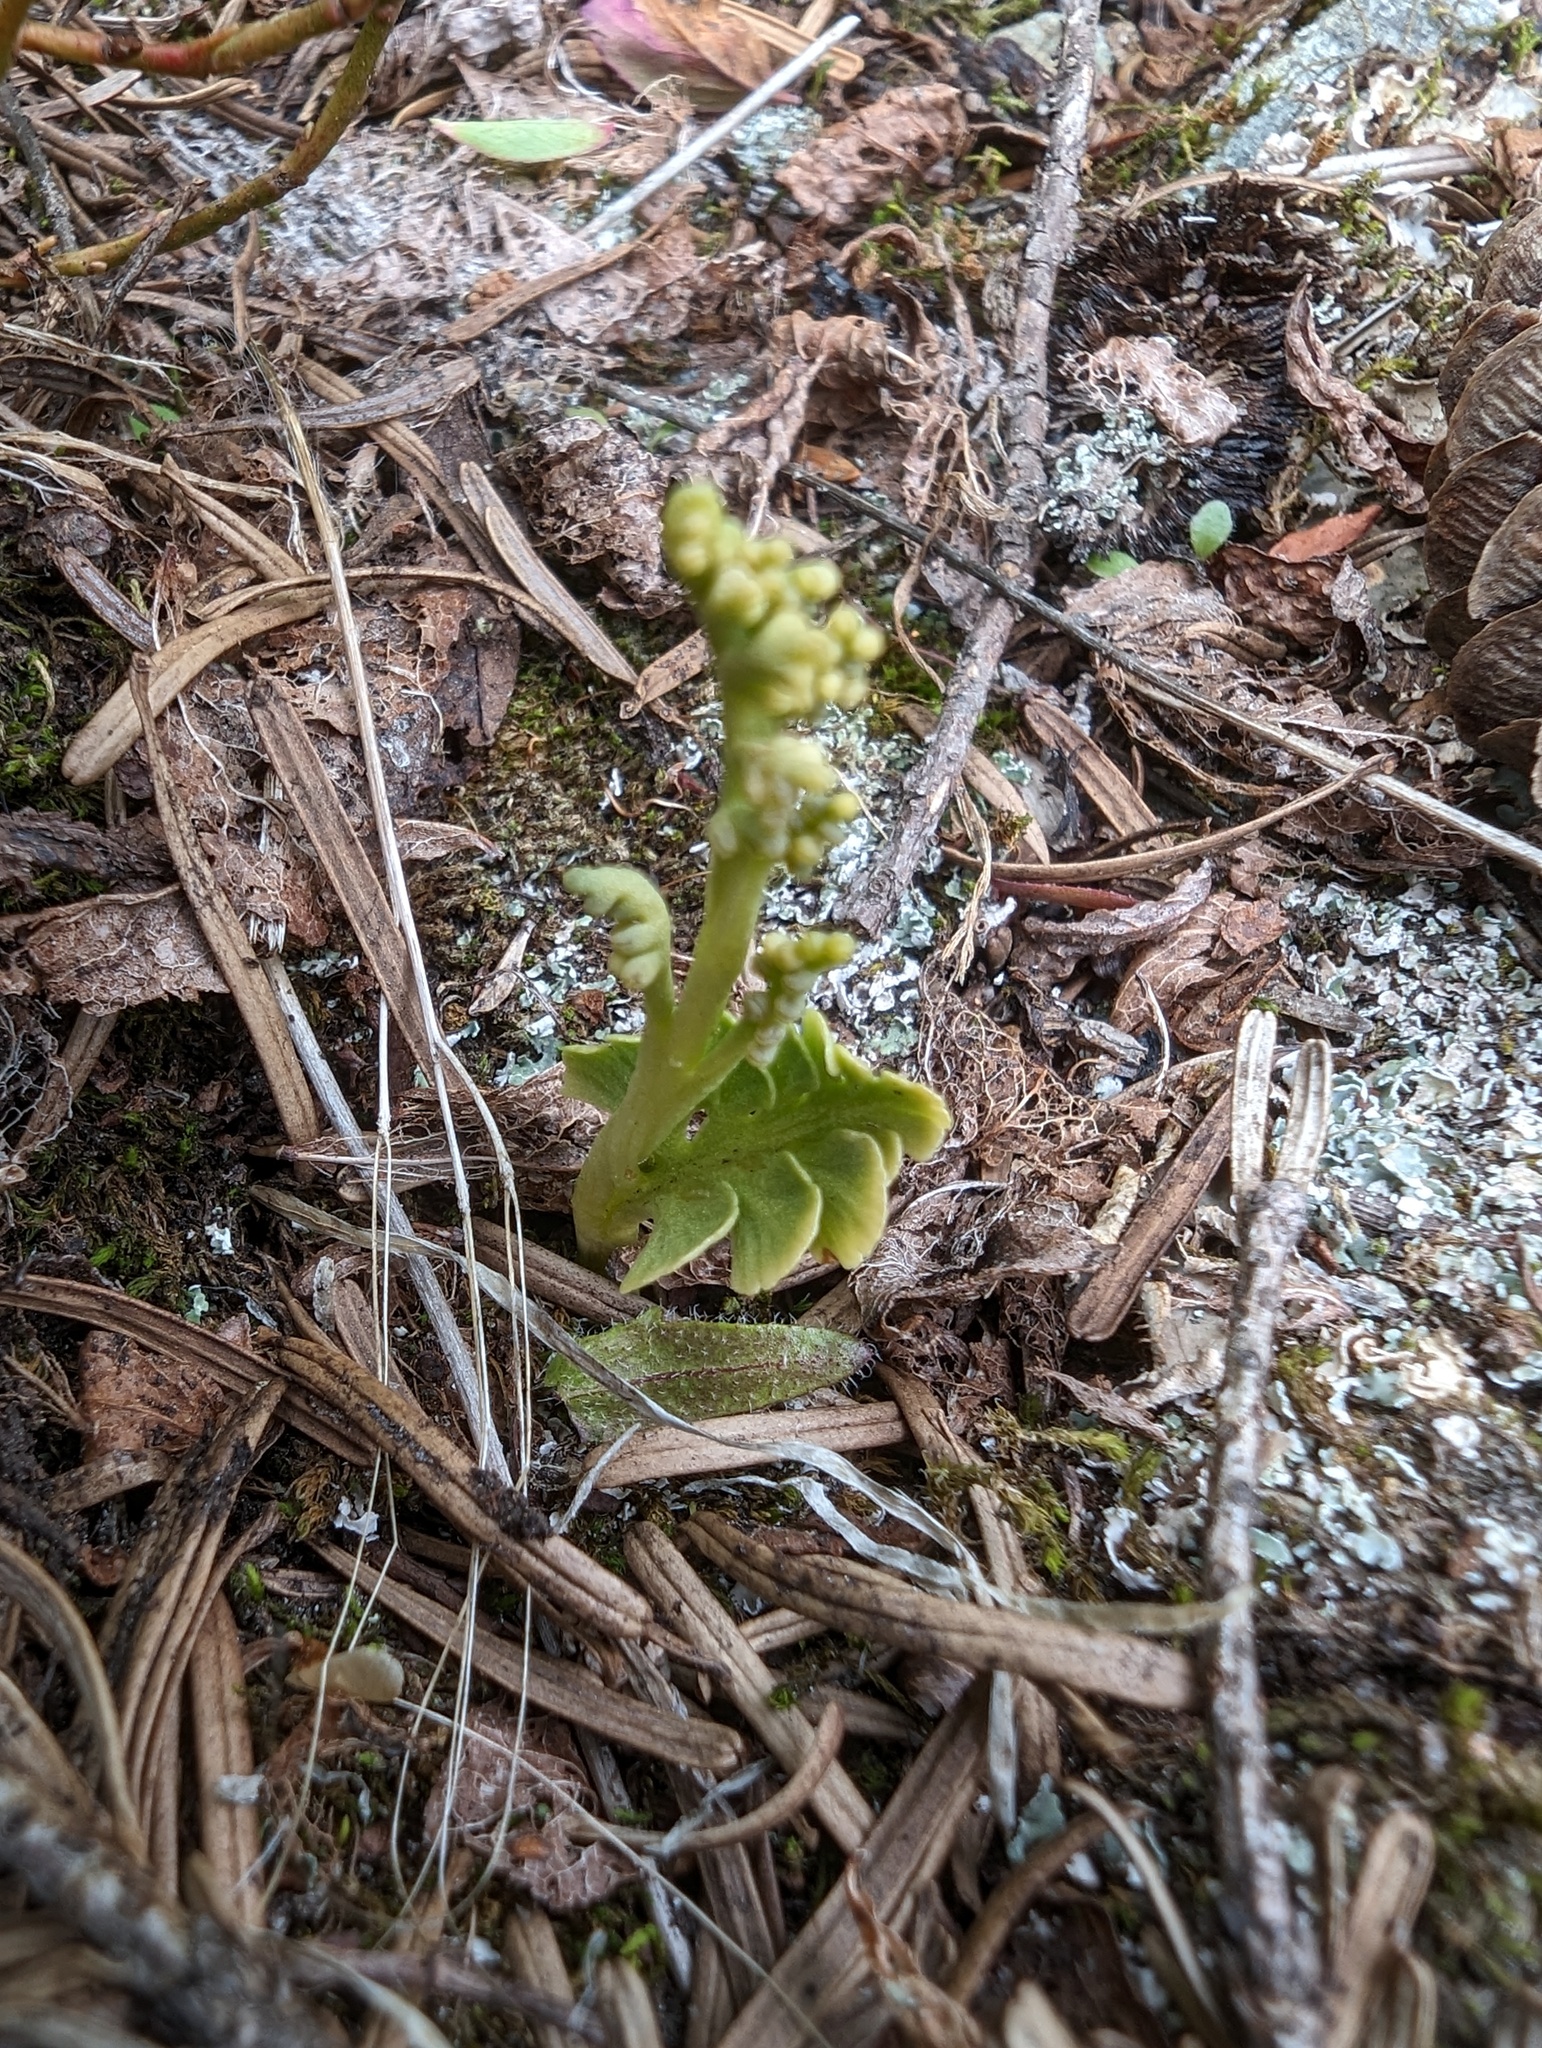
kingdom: Plantae
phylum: Tracheophyta
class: Polypodiopsida
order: Ophioglossales
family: Ophioglossaceae
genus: Botrychium
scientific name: Botrychium neolunaria
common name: New world moonwort
